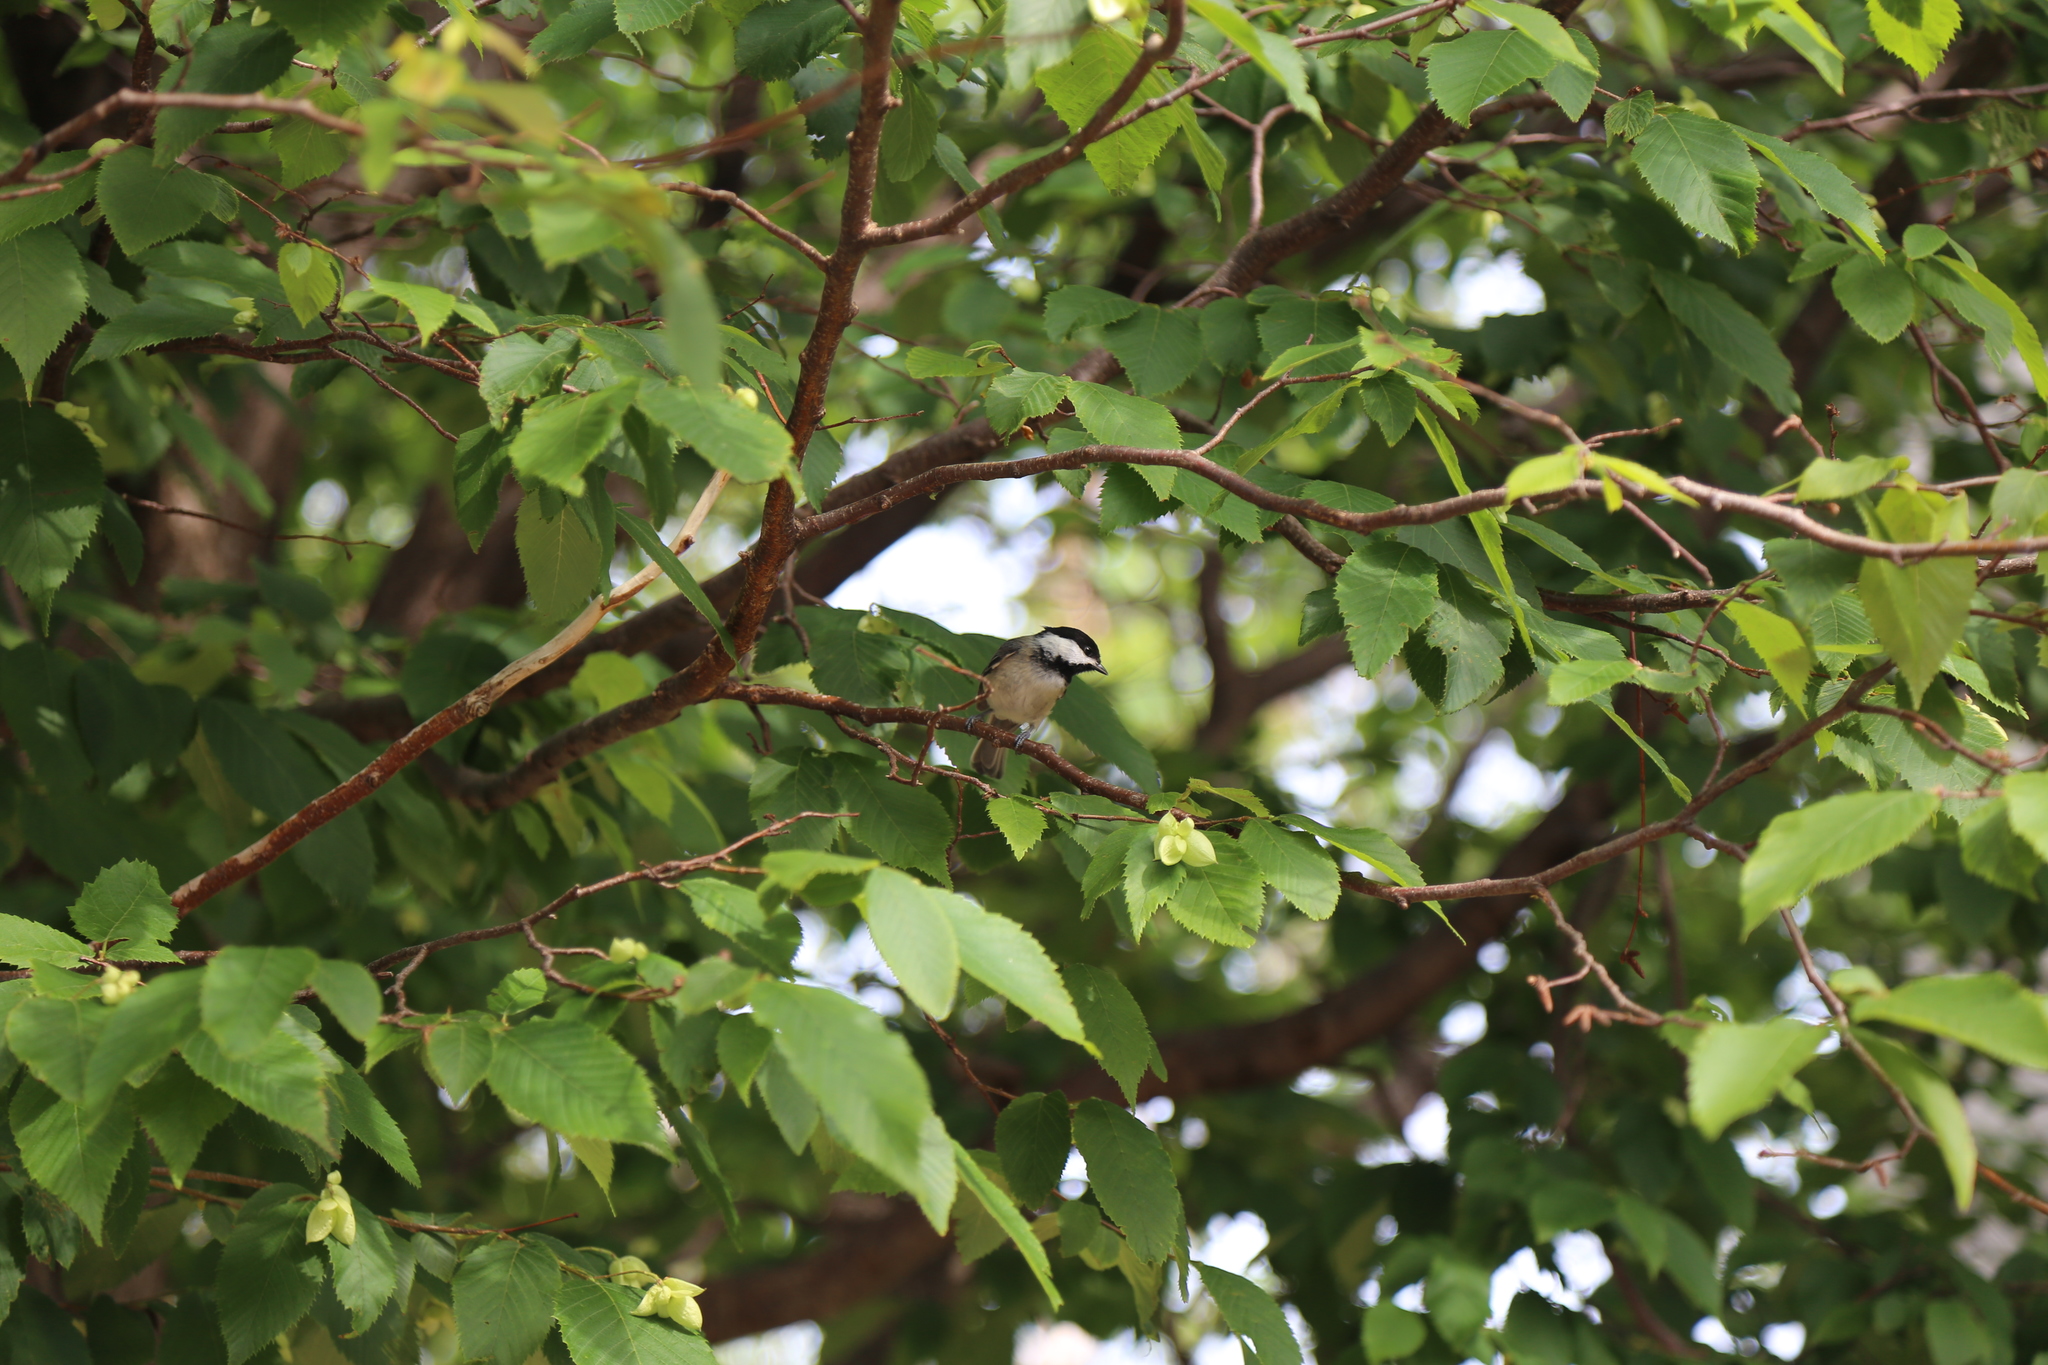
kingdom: Animalia
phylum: Chordata
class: Aves
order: Passeriformes
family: Paridae
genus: Poecile
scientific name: Poecile atricapillus
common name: Black-capped chickadee
